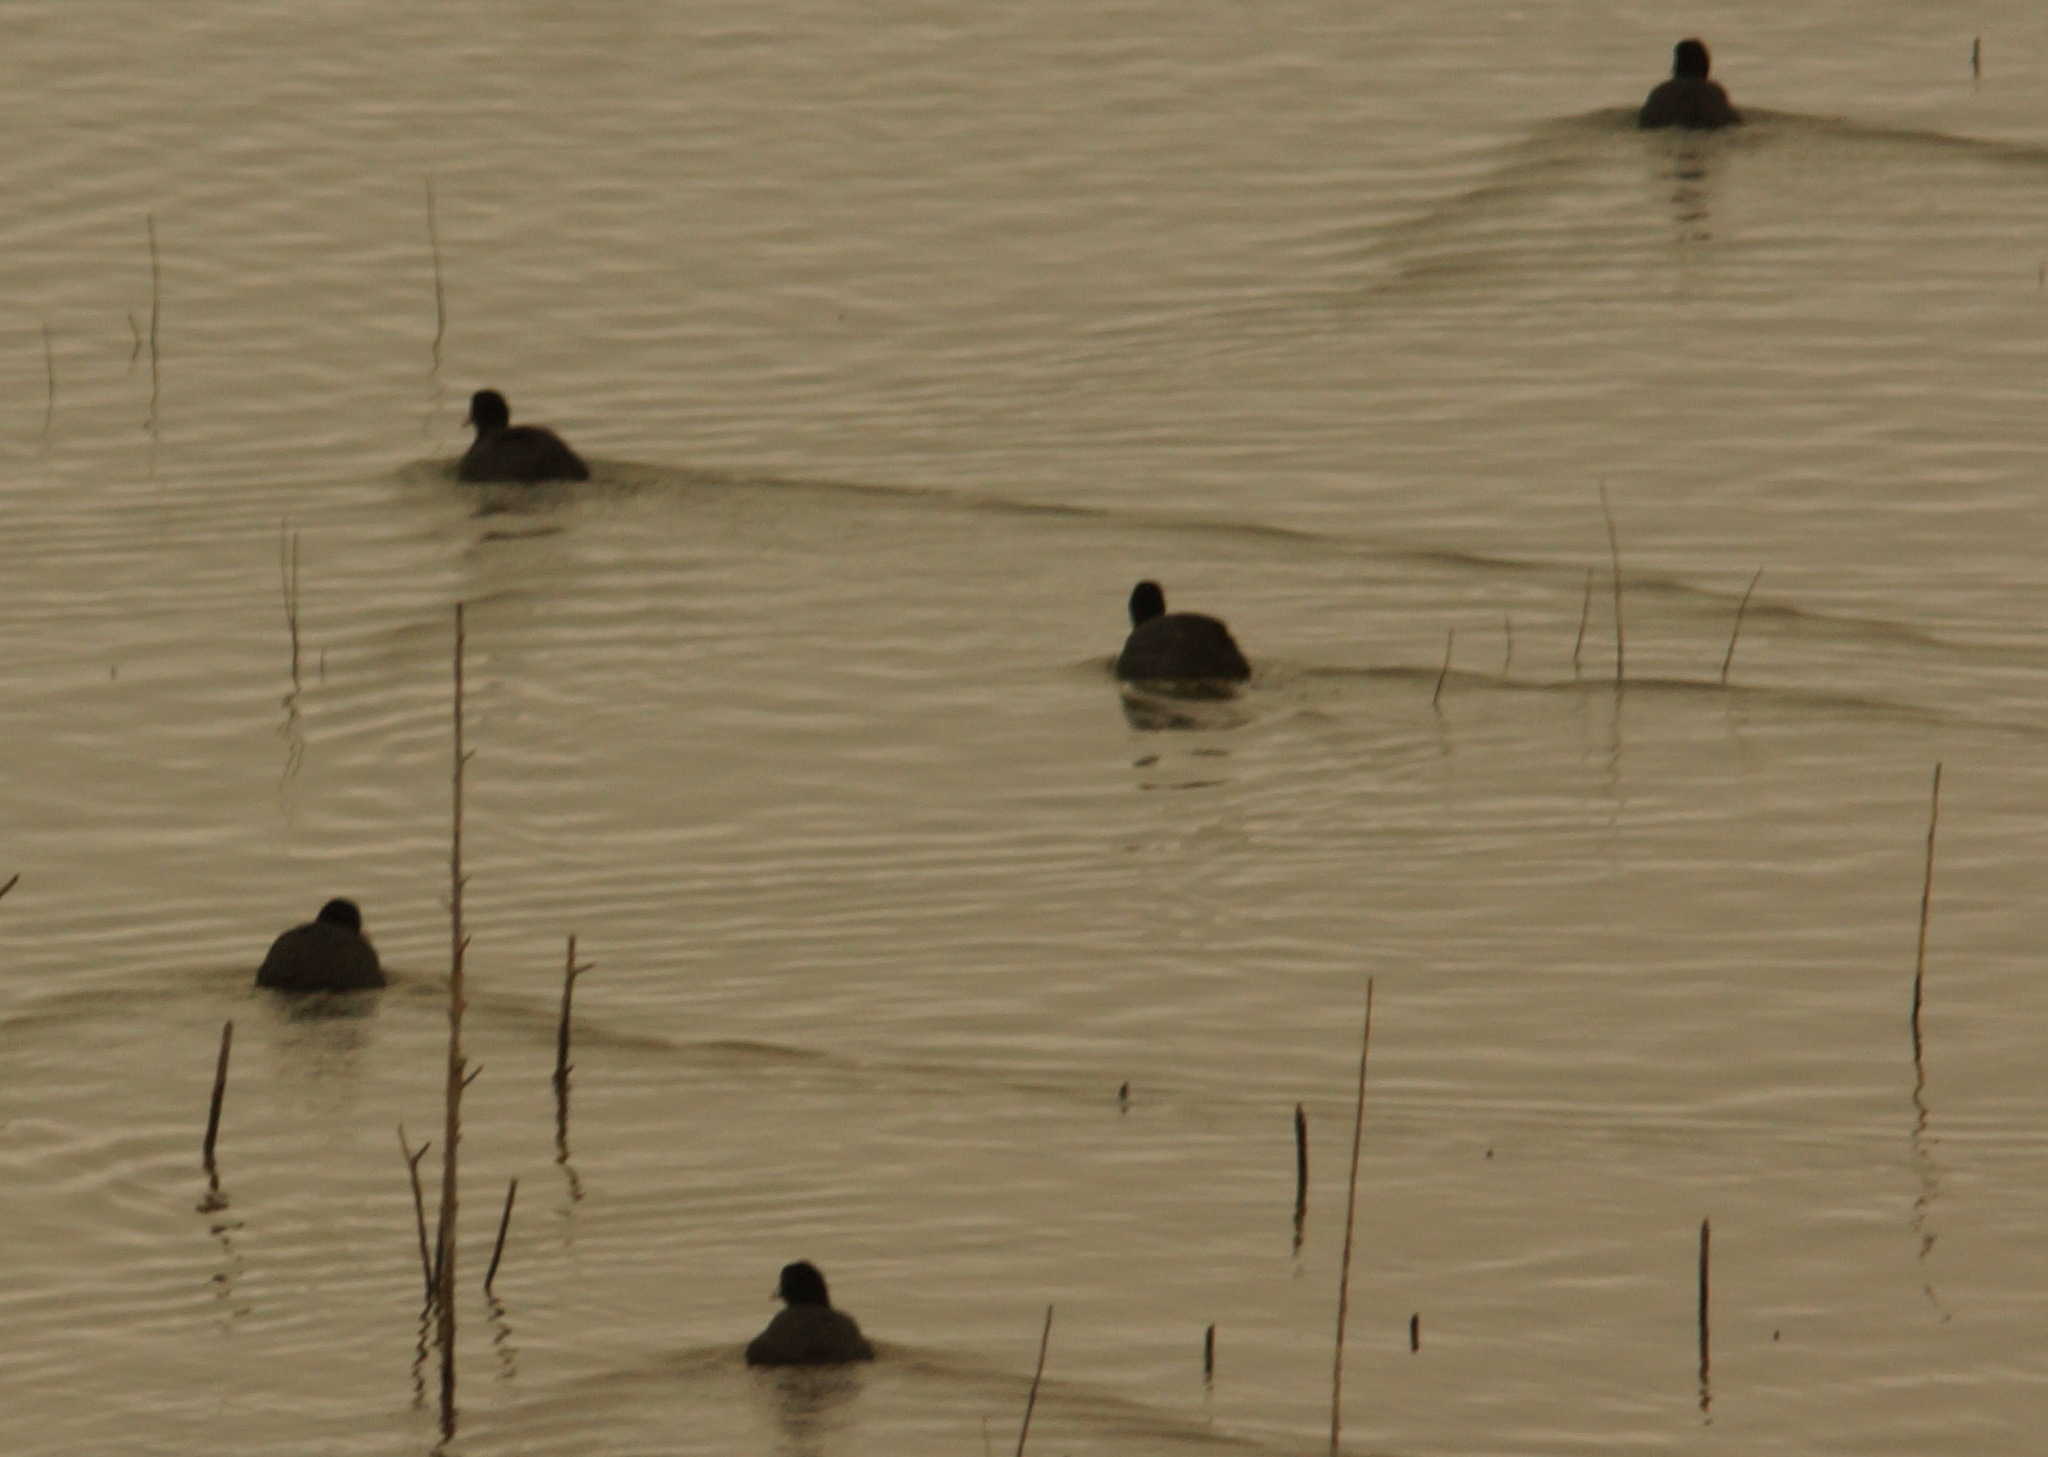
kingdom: Animalia
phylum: Chordata
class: Aves
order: Gruiformes
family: Rallidae
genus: Fulica
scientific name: Fulica atra
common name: Eurasian coot
